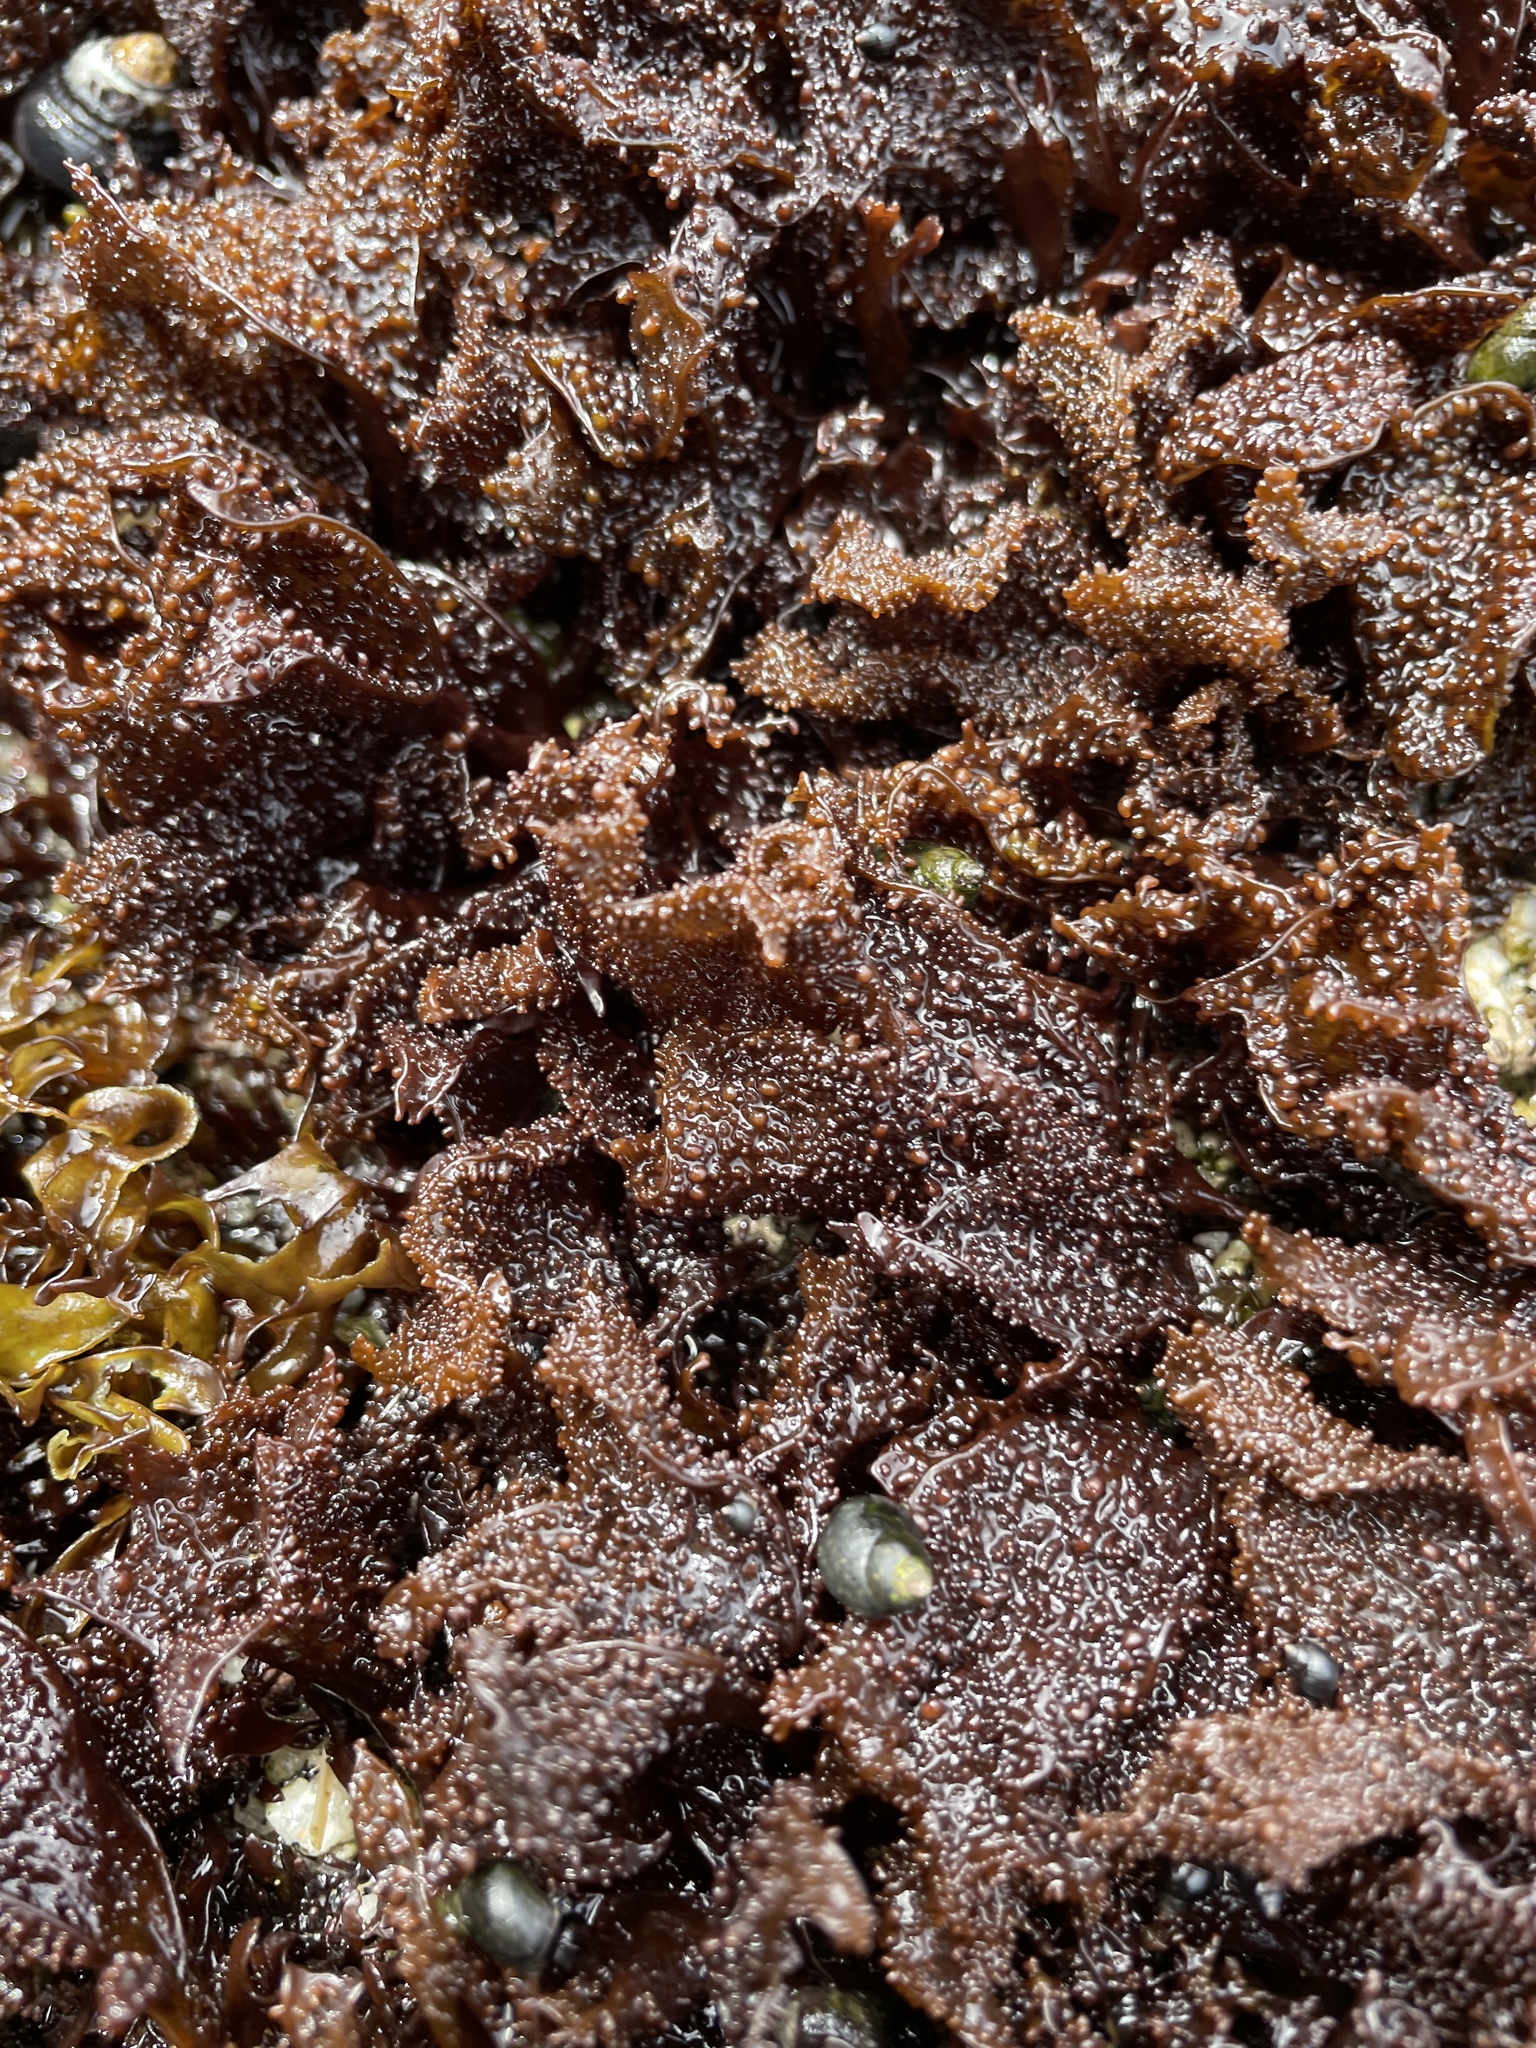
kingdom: Plantae
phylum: Rhodophyta
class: Florideophyceae
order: Gigartinales
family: Phyllophoraceae
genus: Mastocarpus
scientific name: Mastocarpus papillatus
